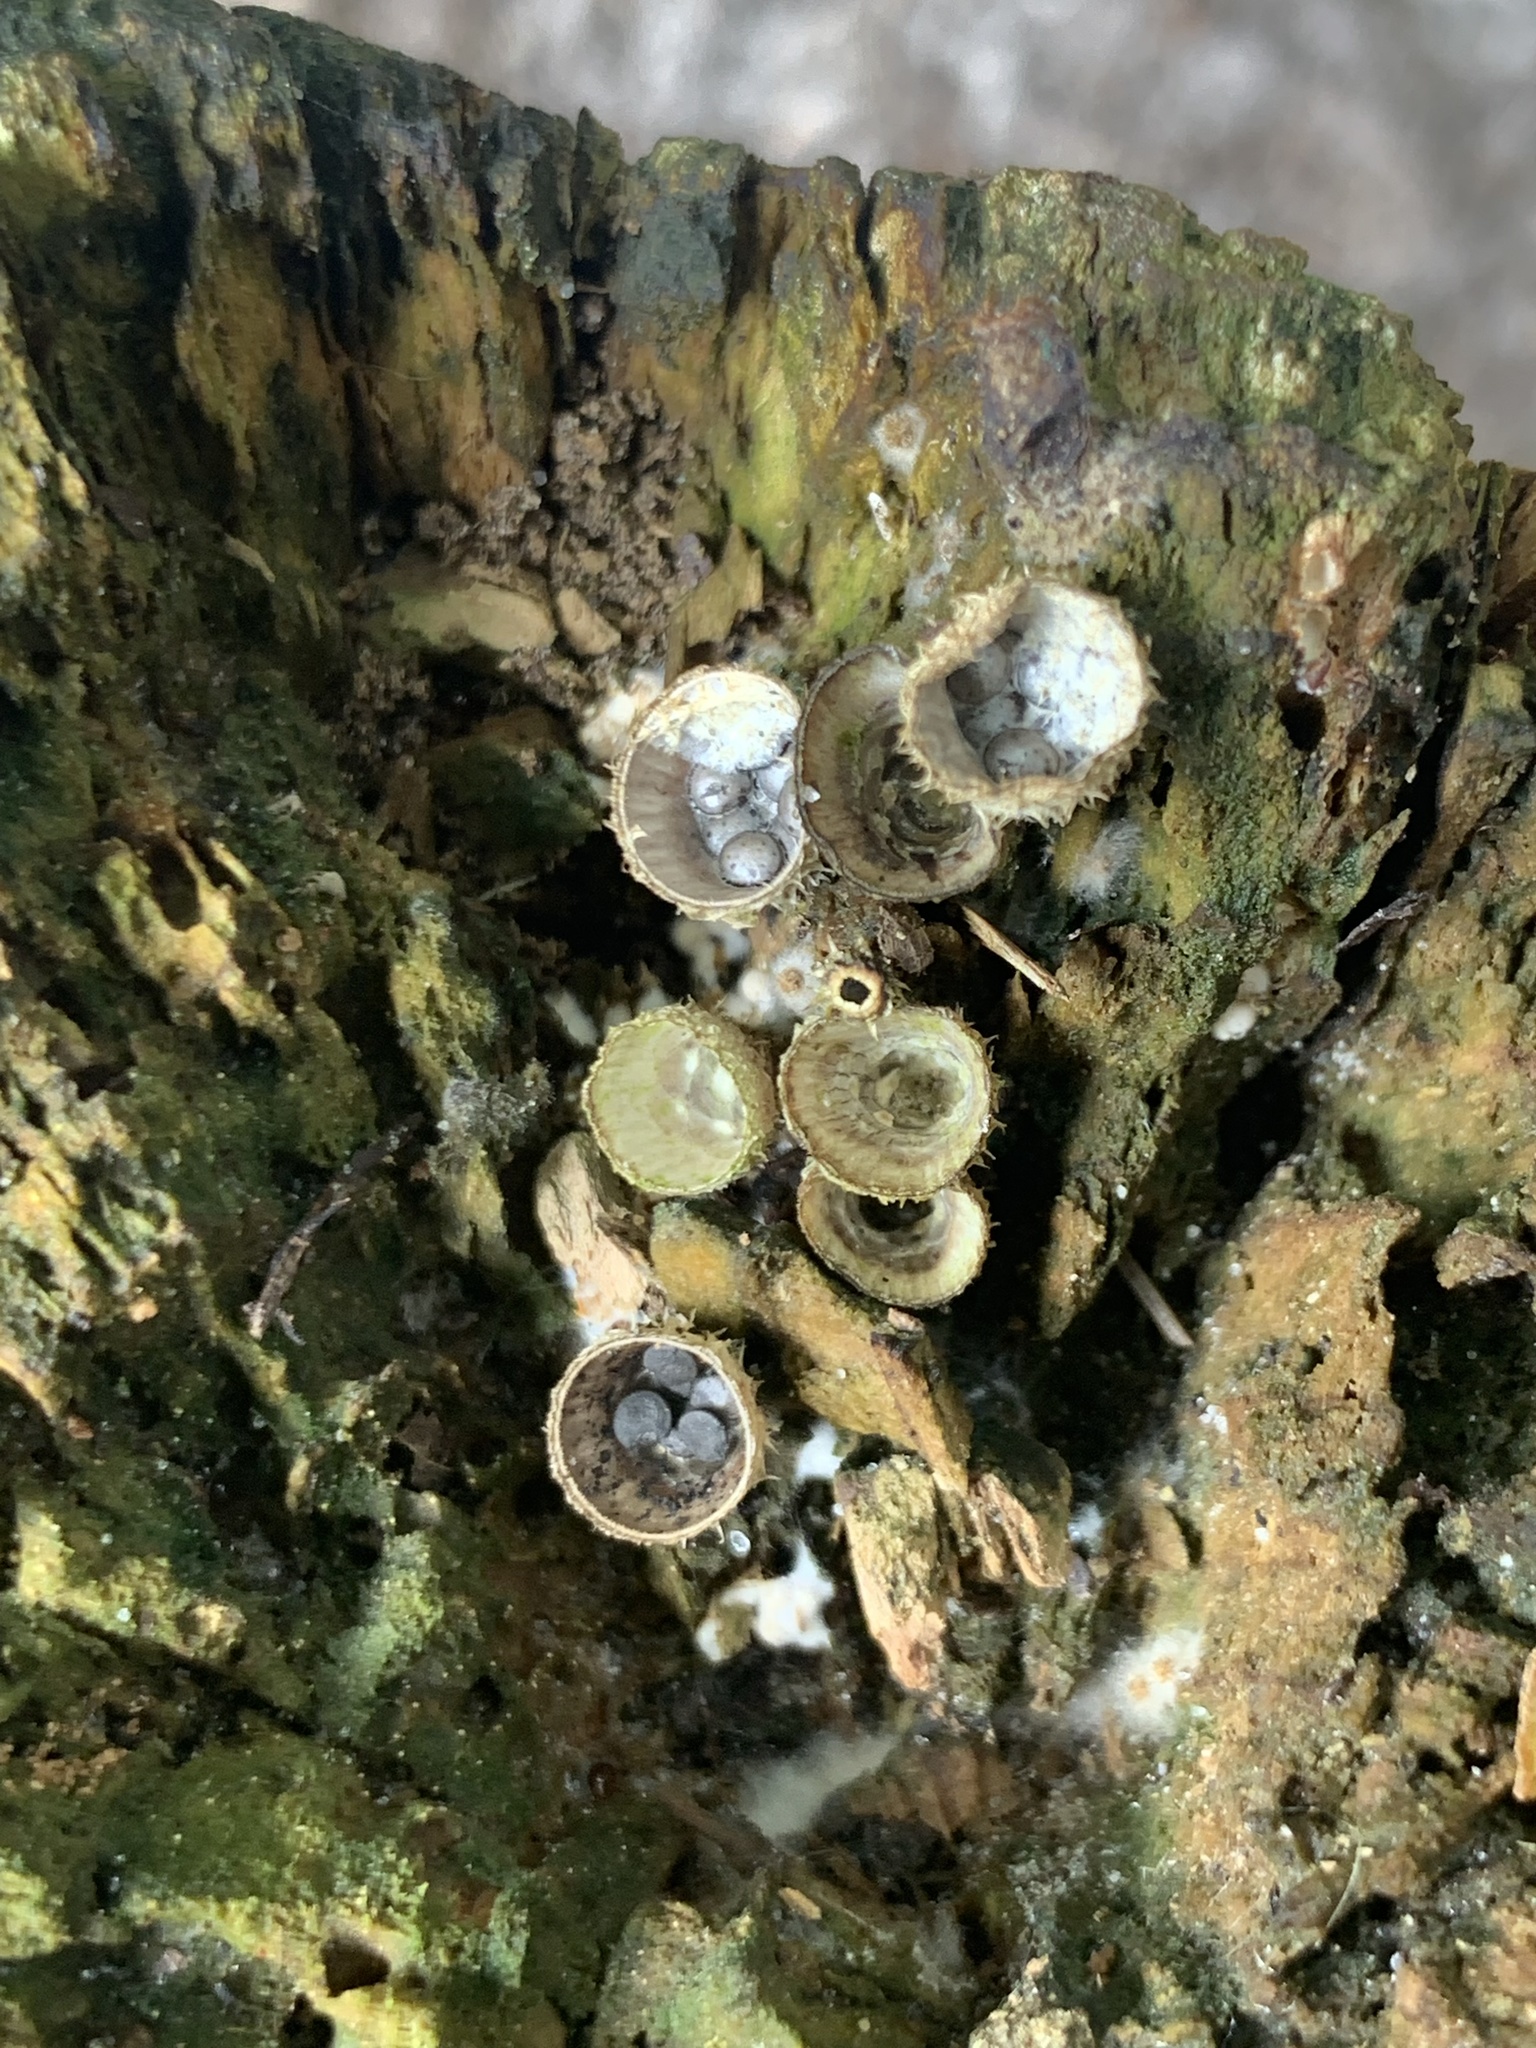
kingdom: Fungi
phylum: Basidiomycota
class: Agaricomycetes
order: Agaricales
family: Agaricaceae
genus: Cyathus
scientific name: Cyathus striatus
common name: Fluted bird's nest
